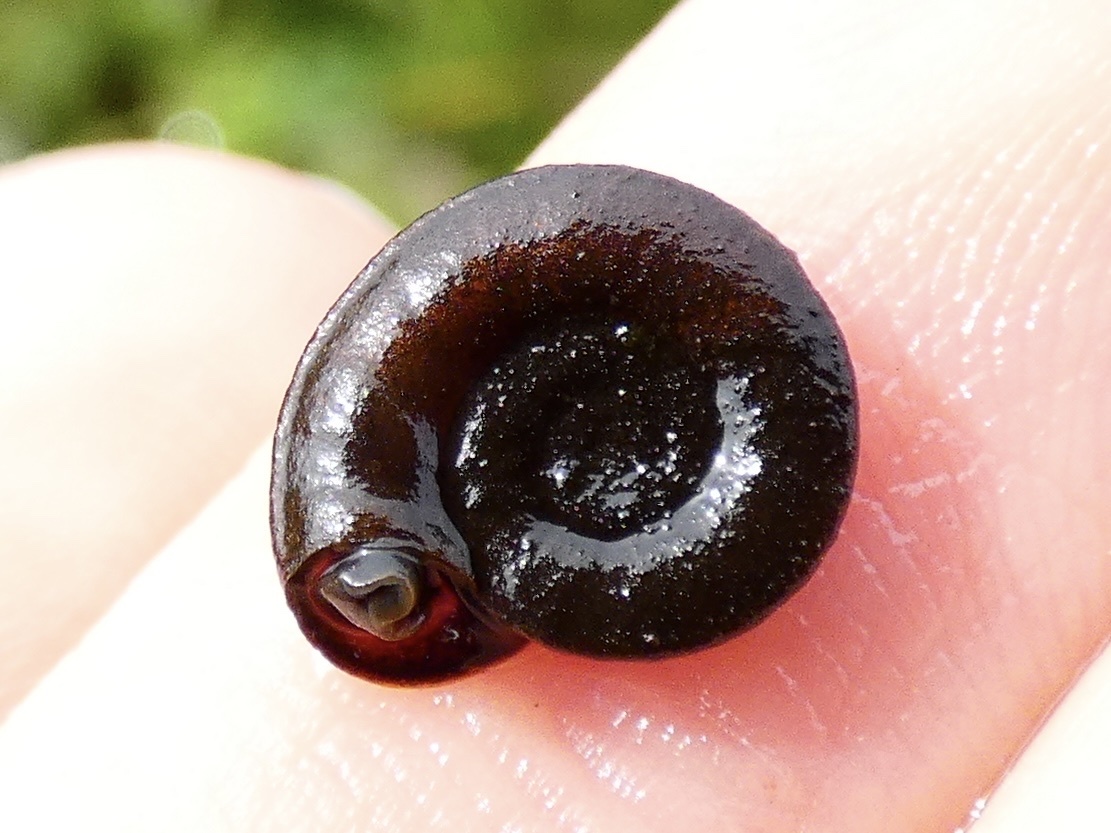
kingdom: Animalia
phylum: Mollusca
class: Gastropoda
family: Planorbidae
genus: Planorbis
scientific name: Planorbis planorbis
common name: Margined ramshorn
